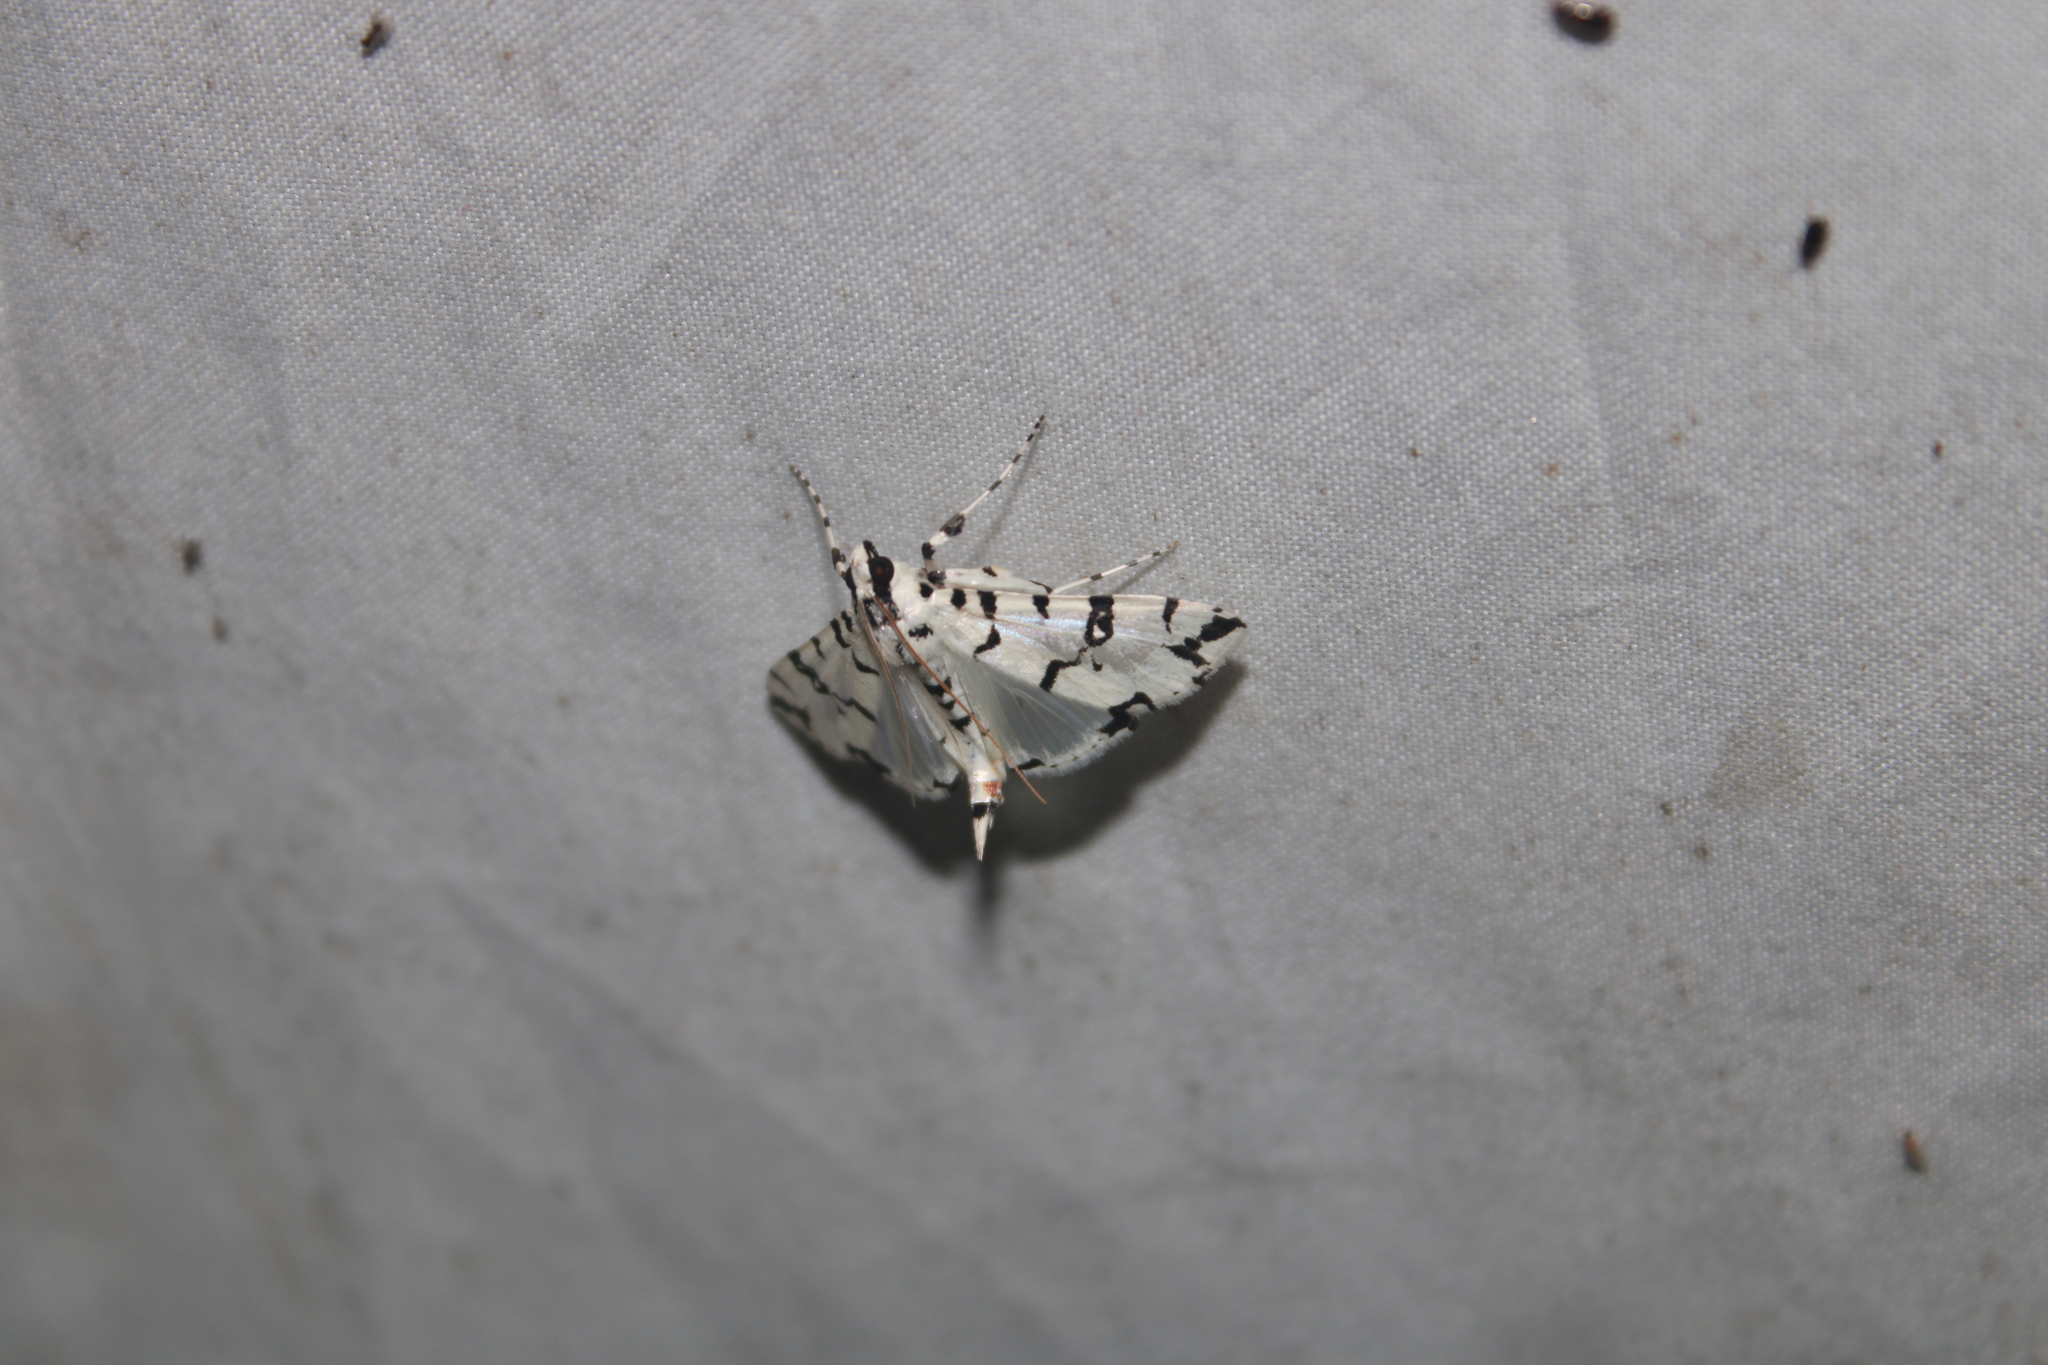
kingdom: Animalia
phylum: Arthropoda
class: Insecta
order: Lepidoptera
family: Crambidae
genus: Conchylodes
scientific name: Conchylodes diphteralis
